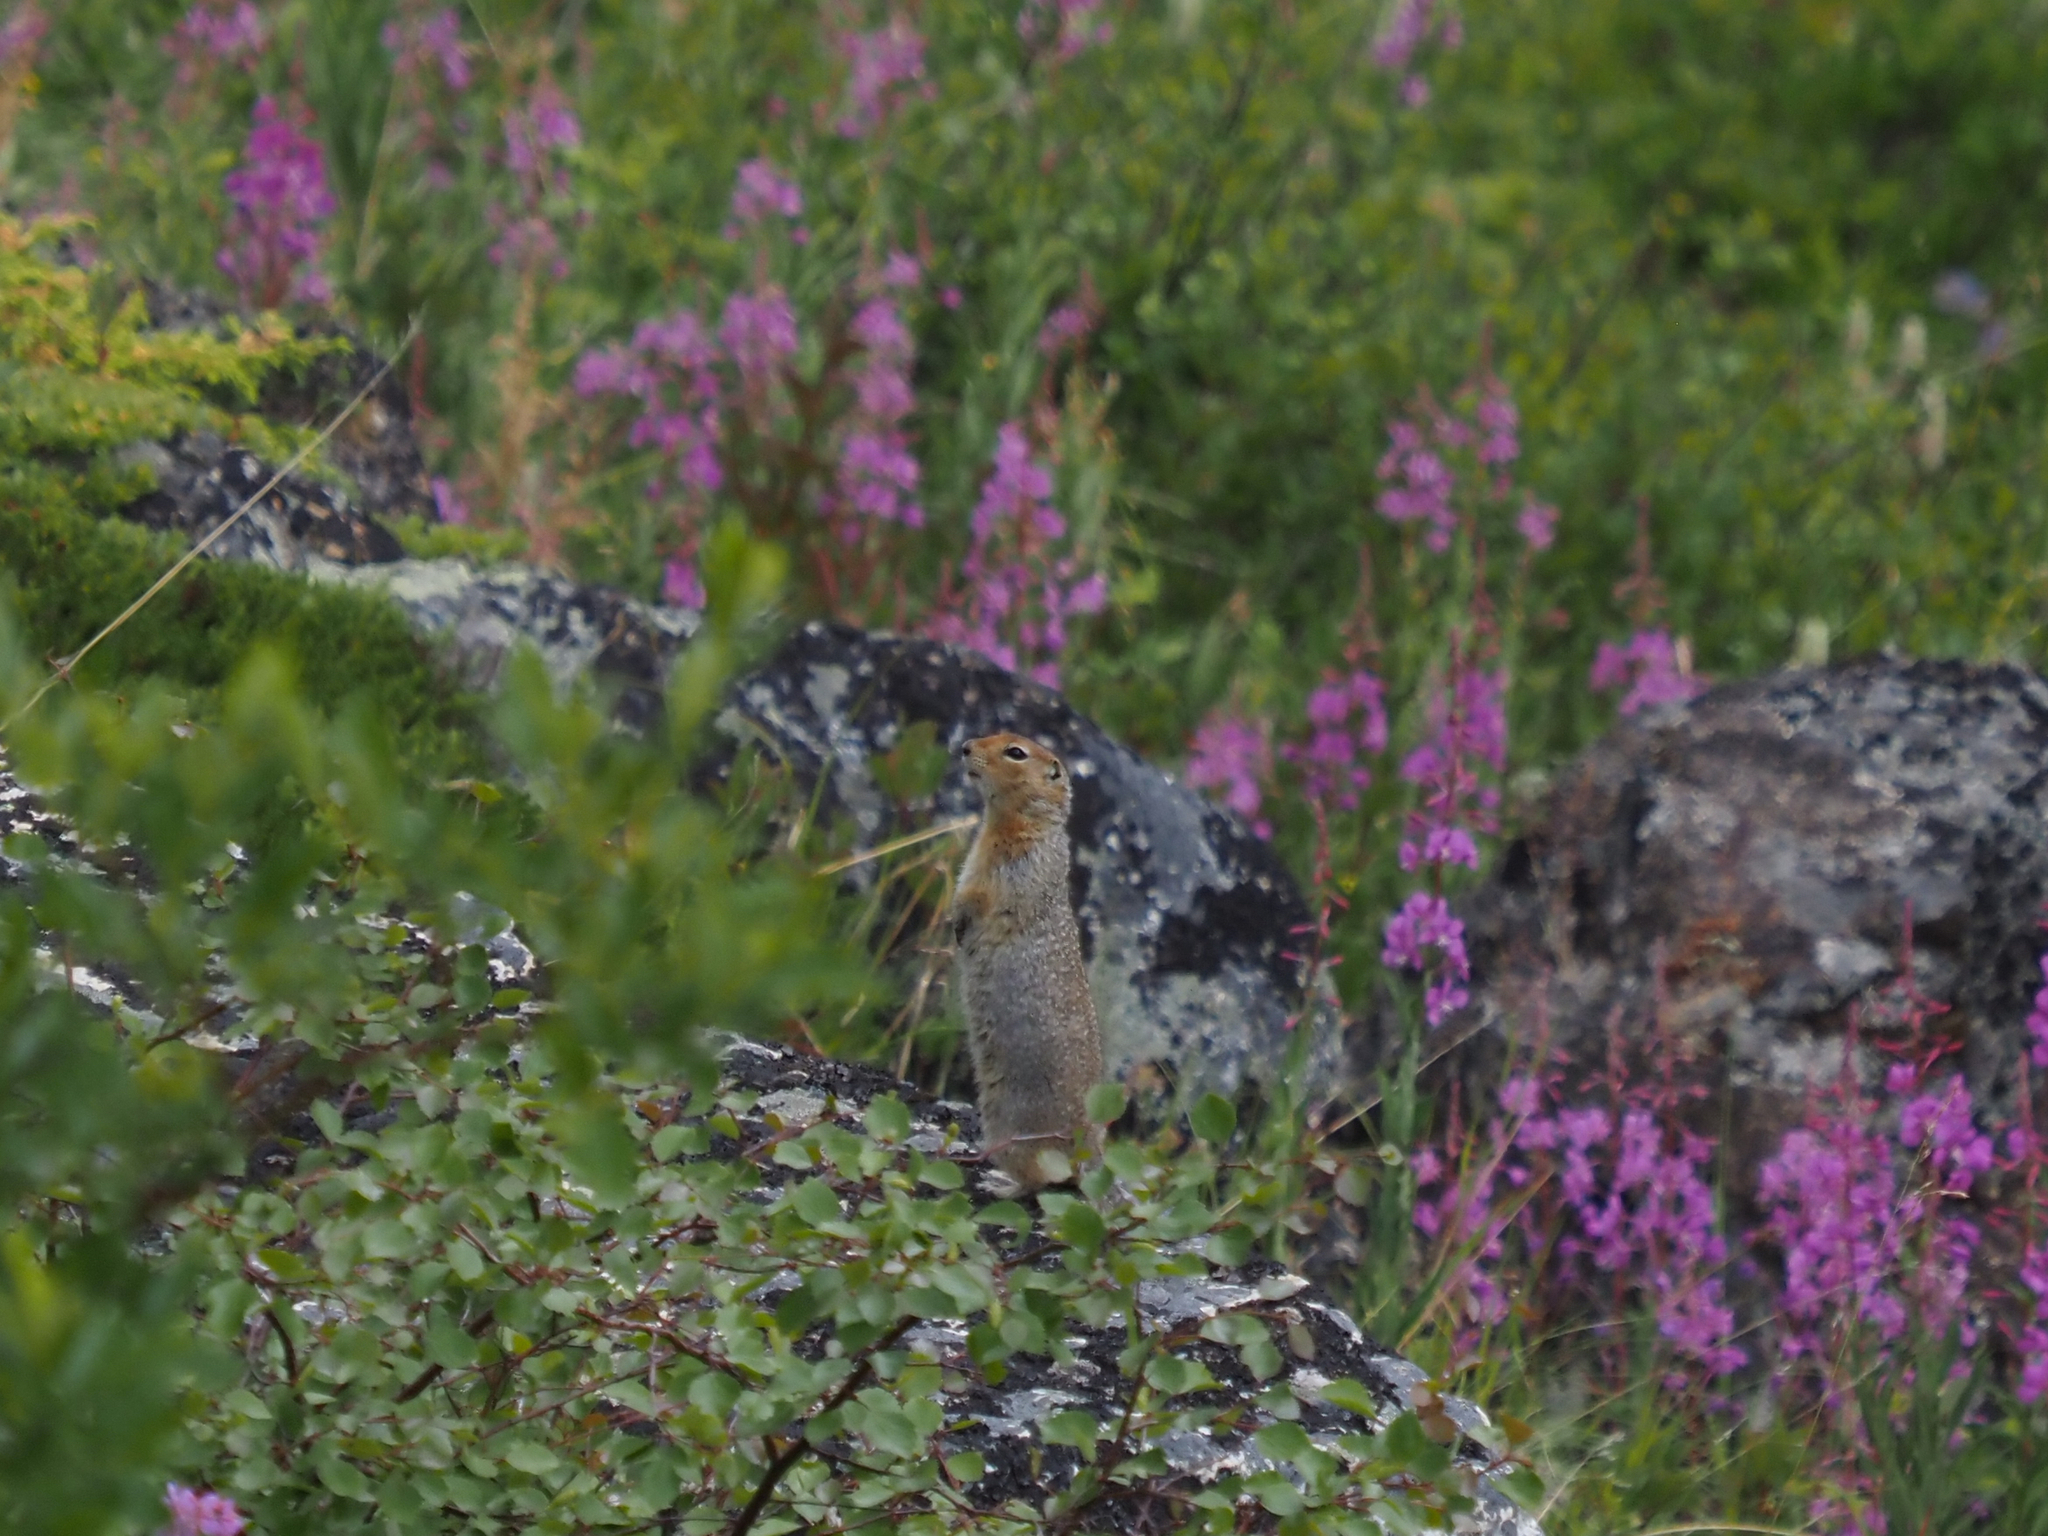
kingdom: Animalia
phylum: Chordata
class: Mammalia
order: Rodentia
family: Sciuridae
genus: Urocitellus
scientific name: Urocitellus parryii
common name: Arctic ground squirrel
